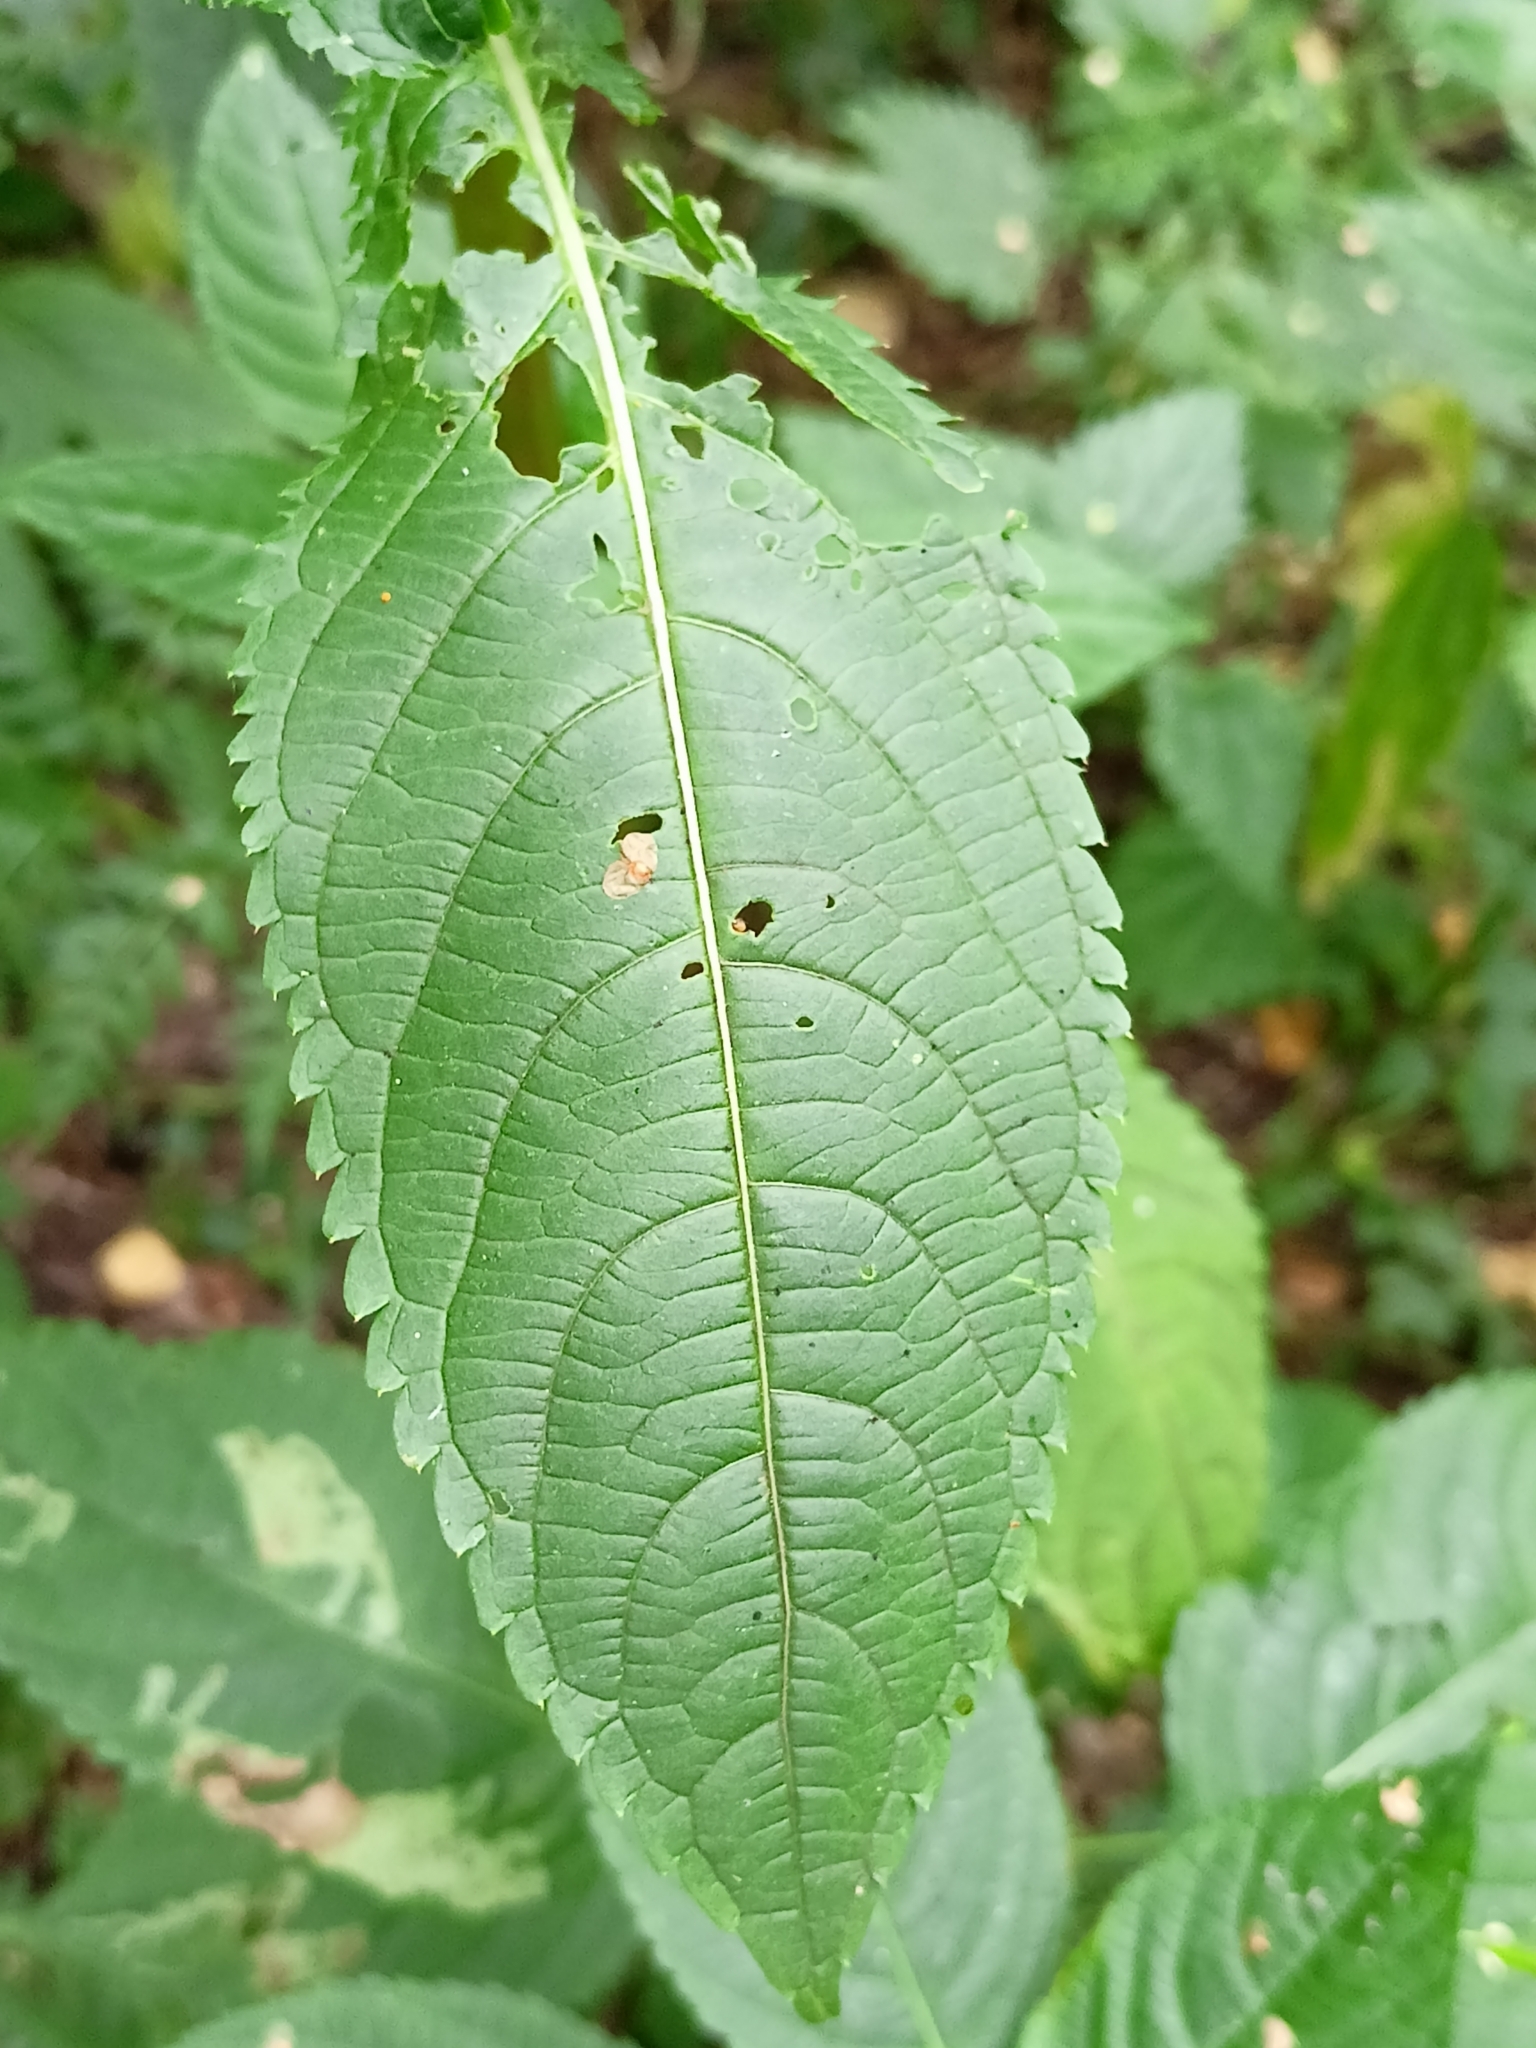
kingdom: Plantae
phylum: Tracheophyta
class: Magnoliopsida
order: Ericales
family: Balsaminaceae
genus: Impatiens
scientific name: Impatiens glandulifera
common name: Himalayan balsam
